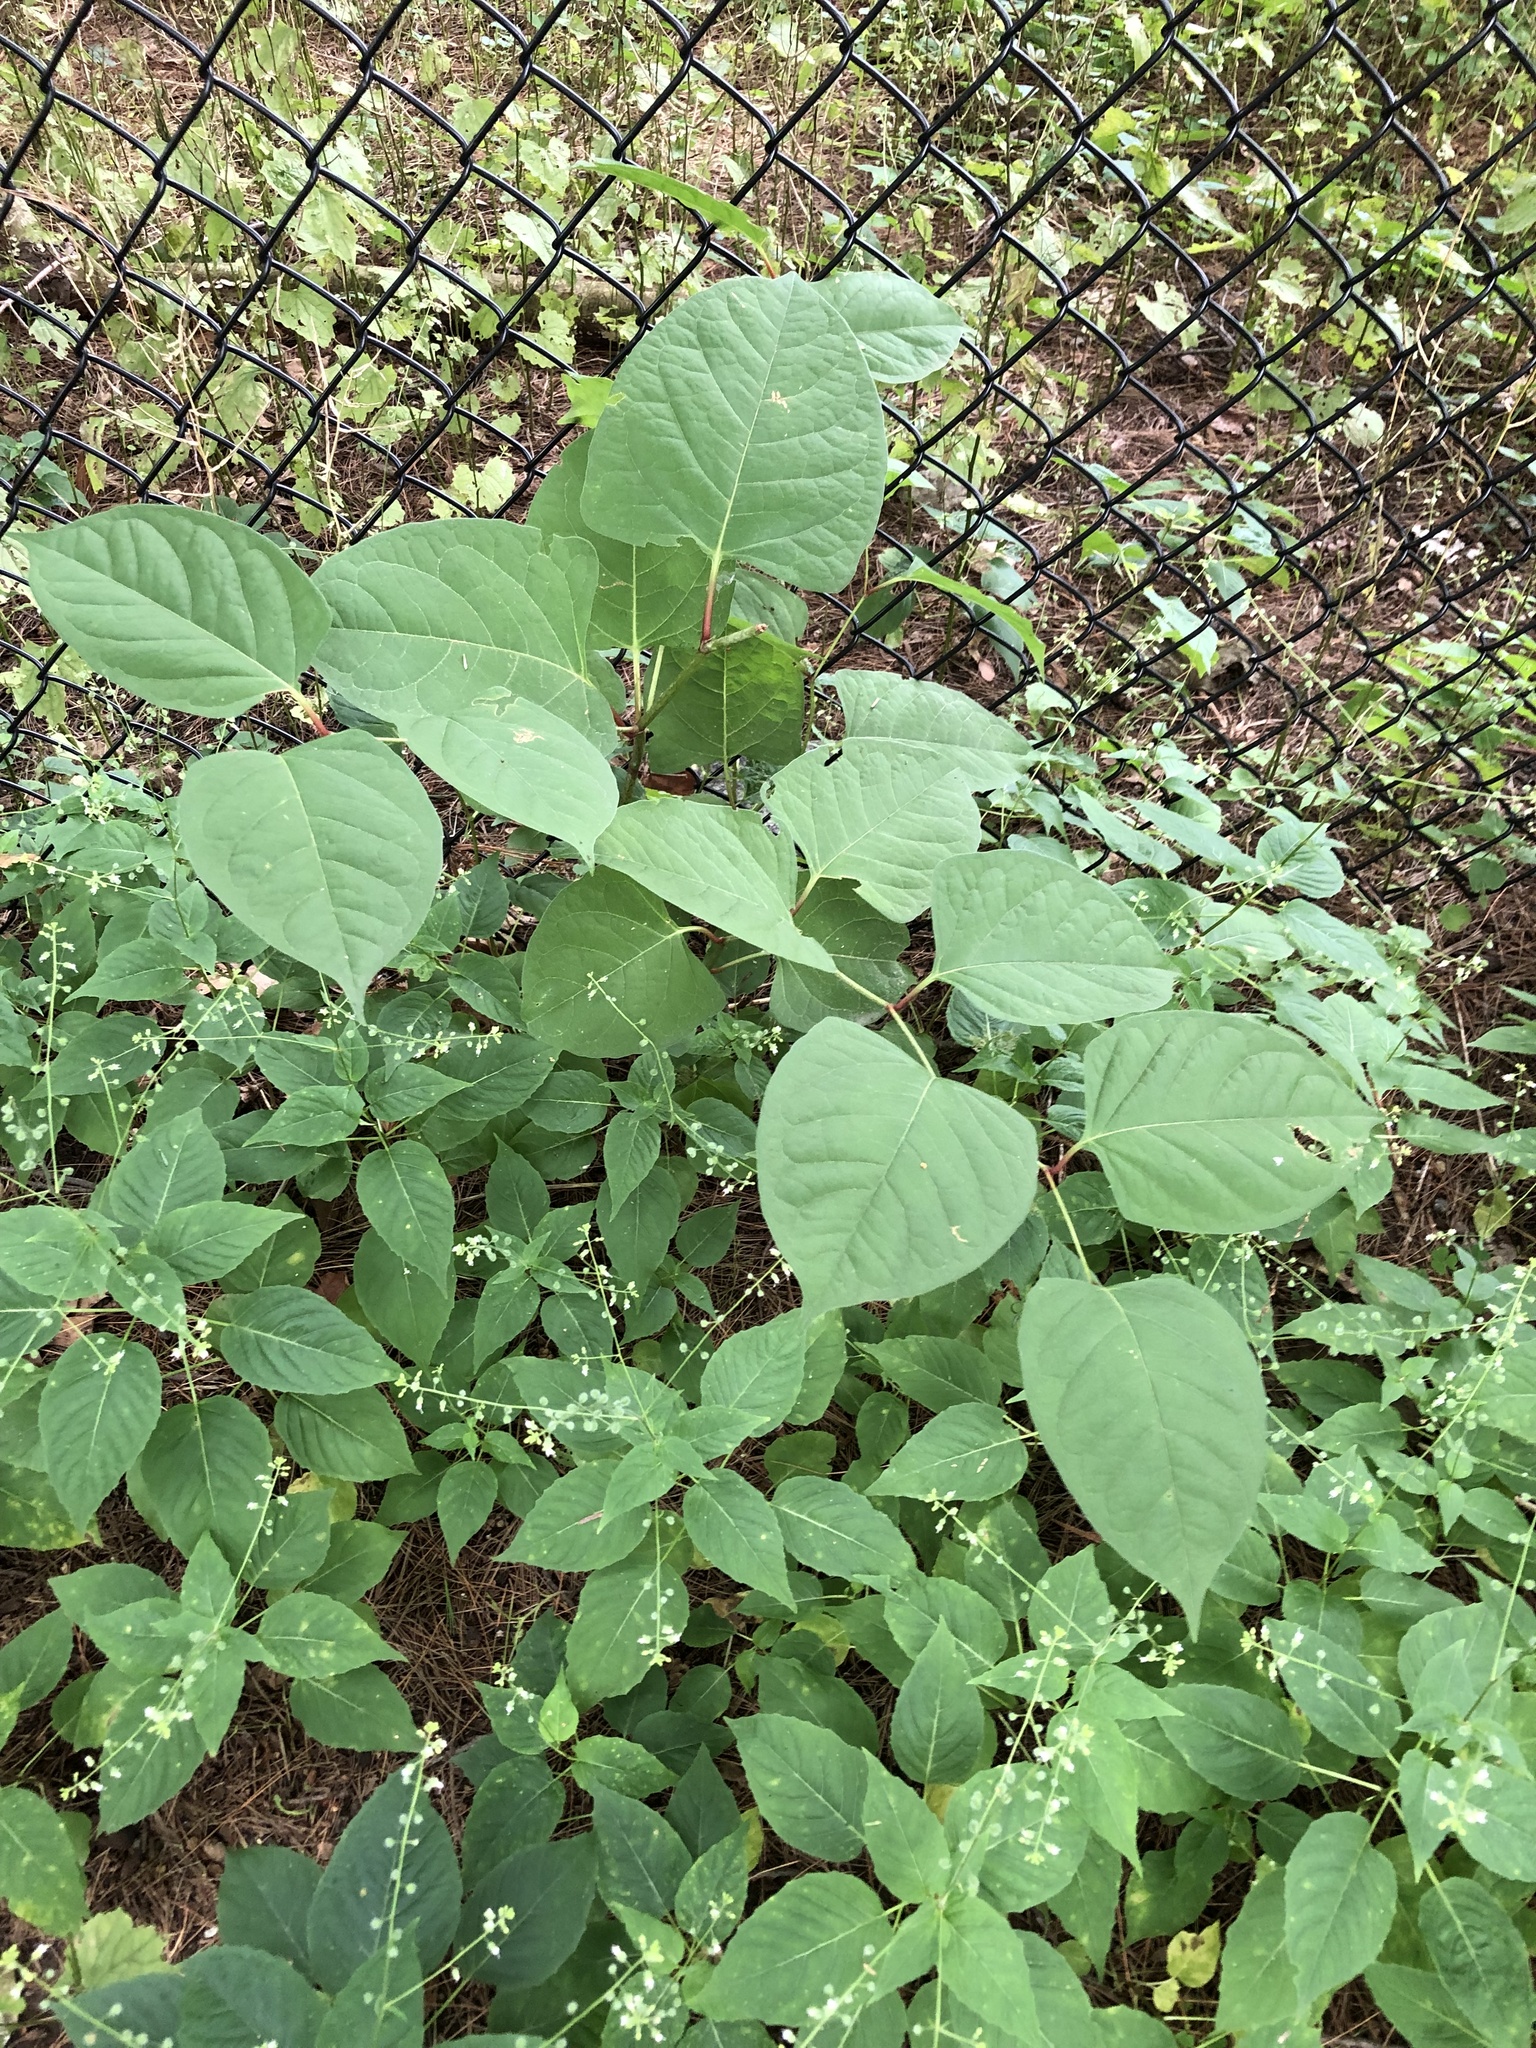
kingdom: Plantae
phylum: Tracheophyta
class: Magnoliopsida
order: Caryophyllales
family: Polygonaceae
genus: Reynoutria
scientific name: Reynoutria japonica
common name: Japanese knotweed
